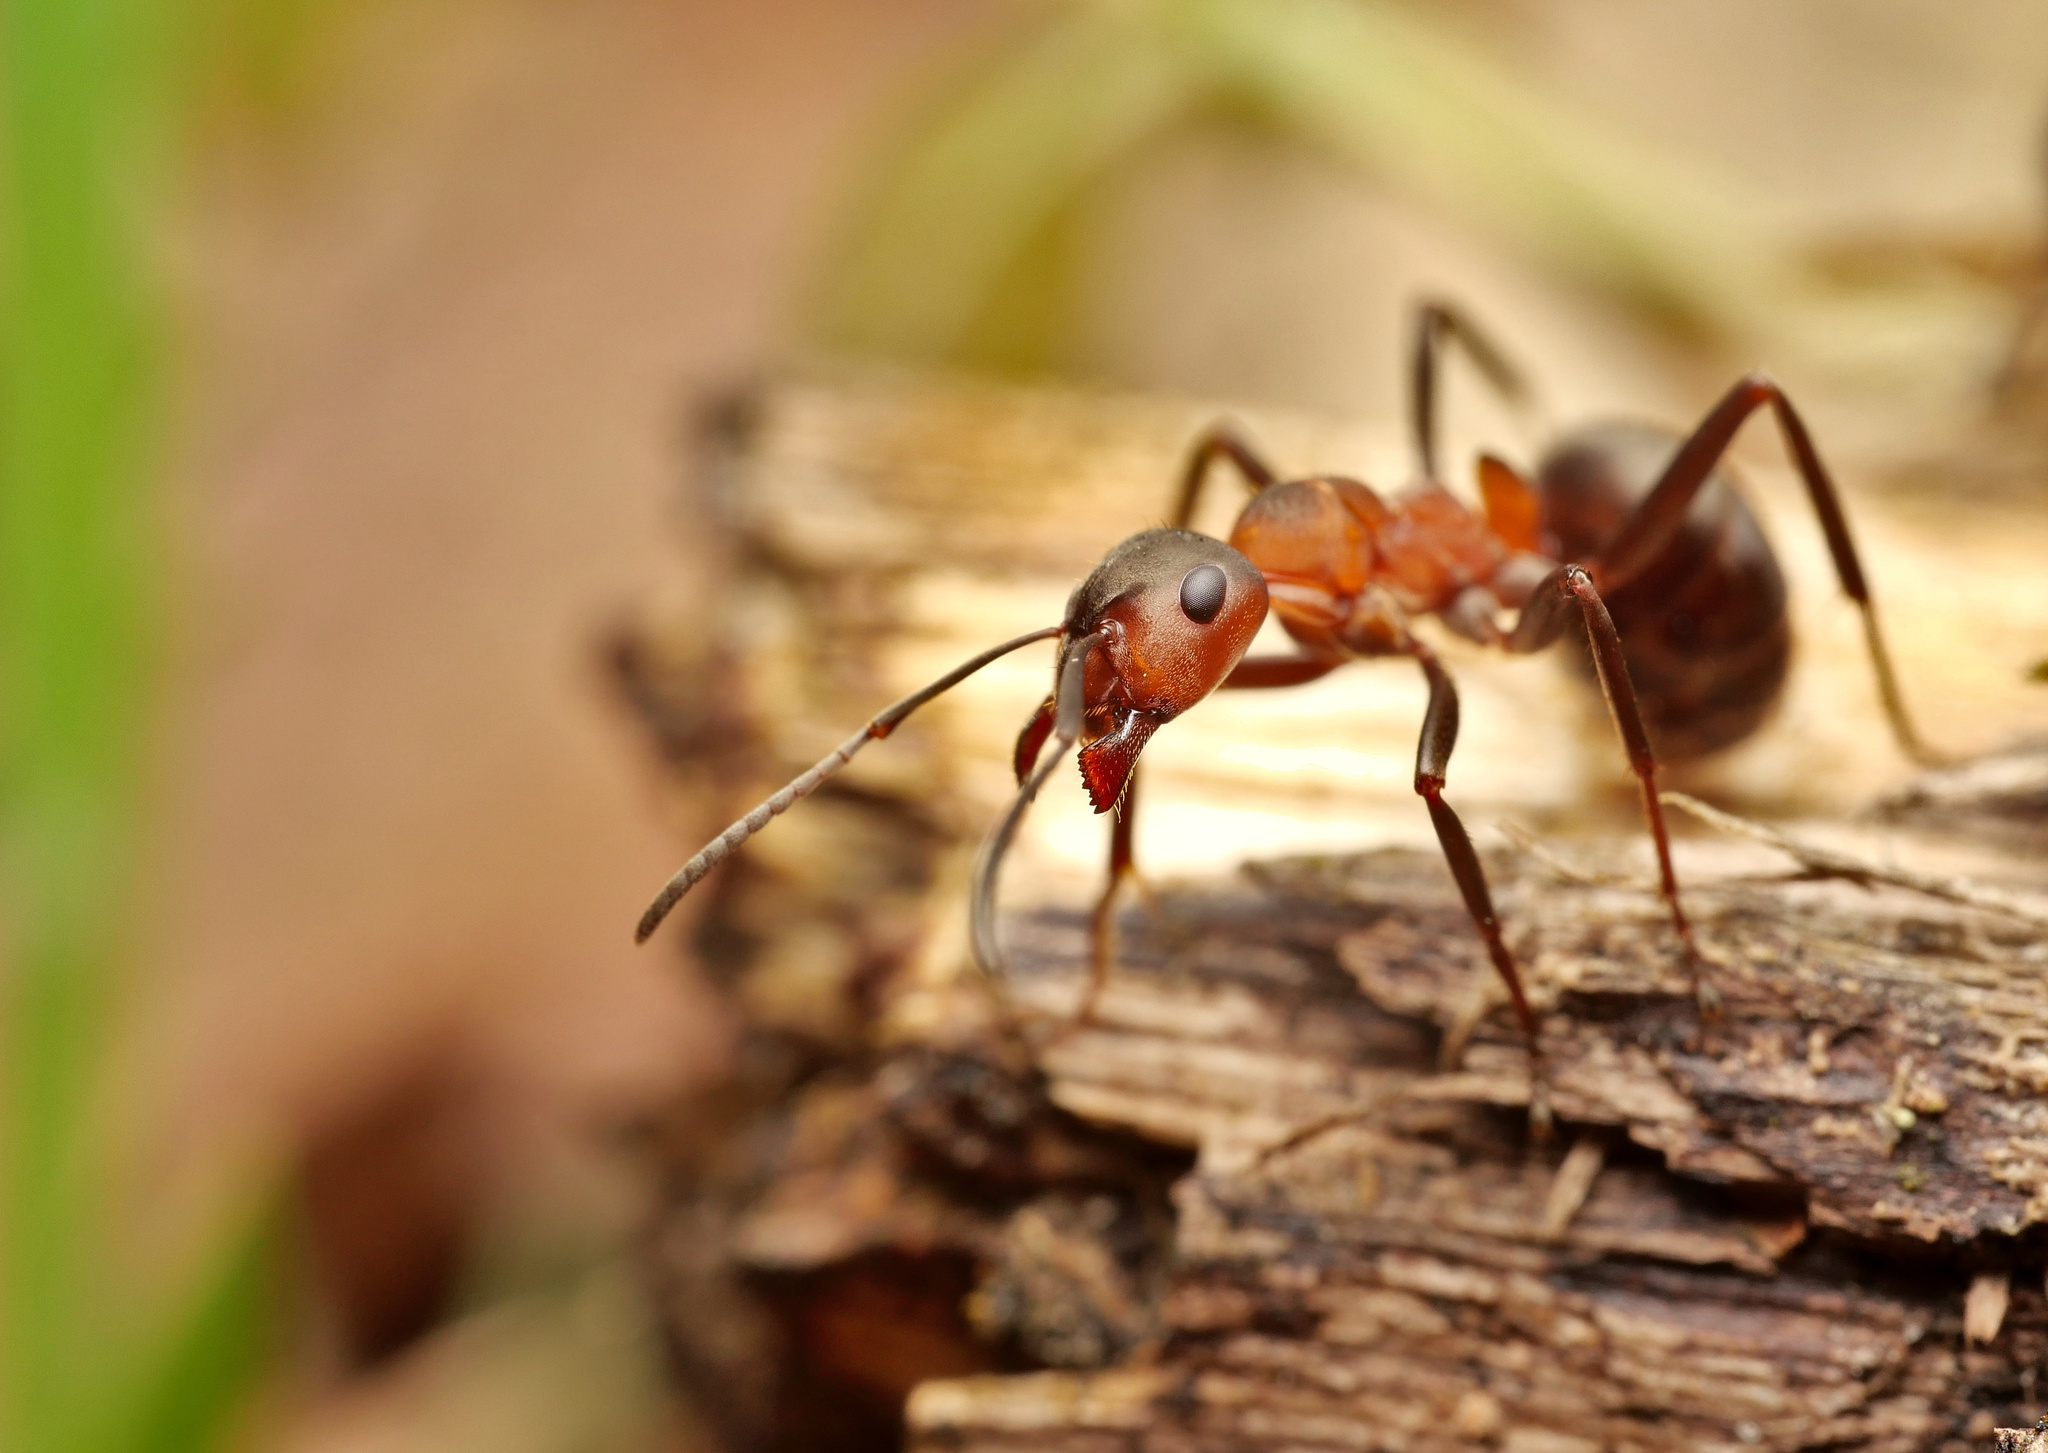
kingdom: Animalia
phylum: Arthropoda
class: Insecta
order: Hymenoptera
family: Formicidae
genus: Formica
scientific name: Formica rufa
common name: Red wood ant
